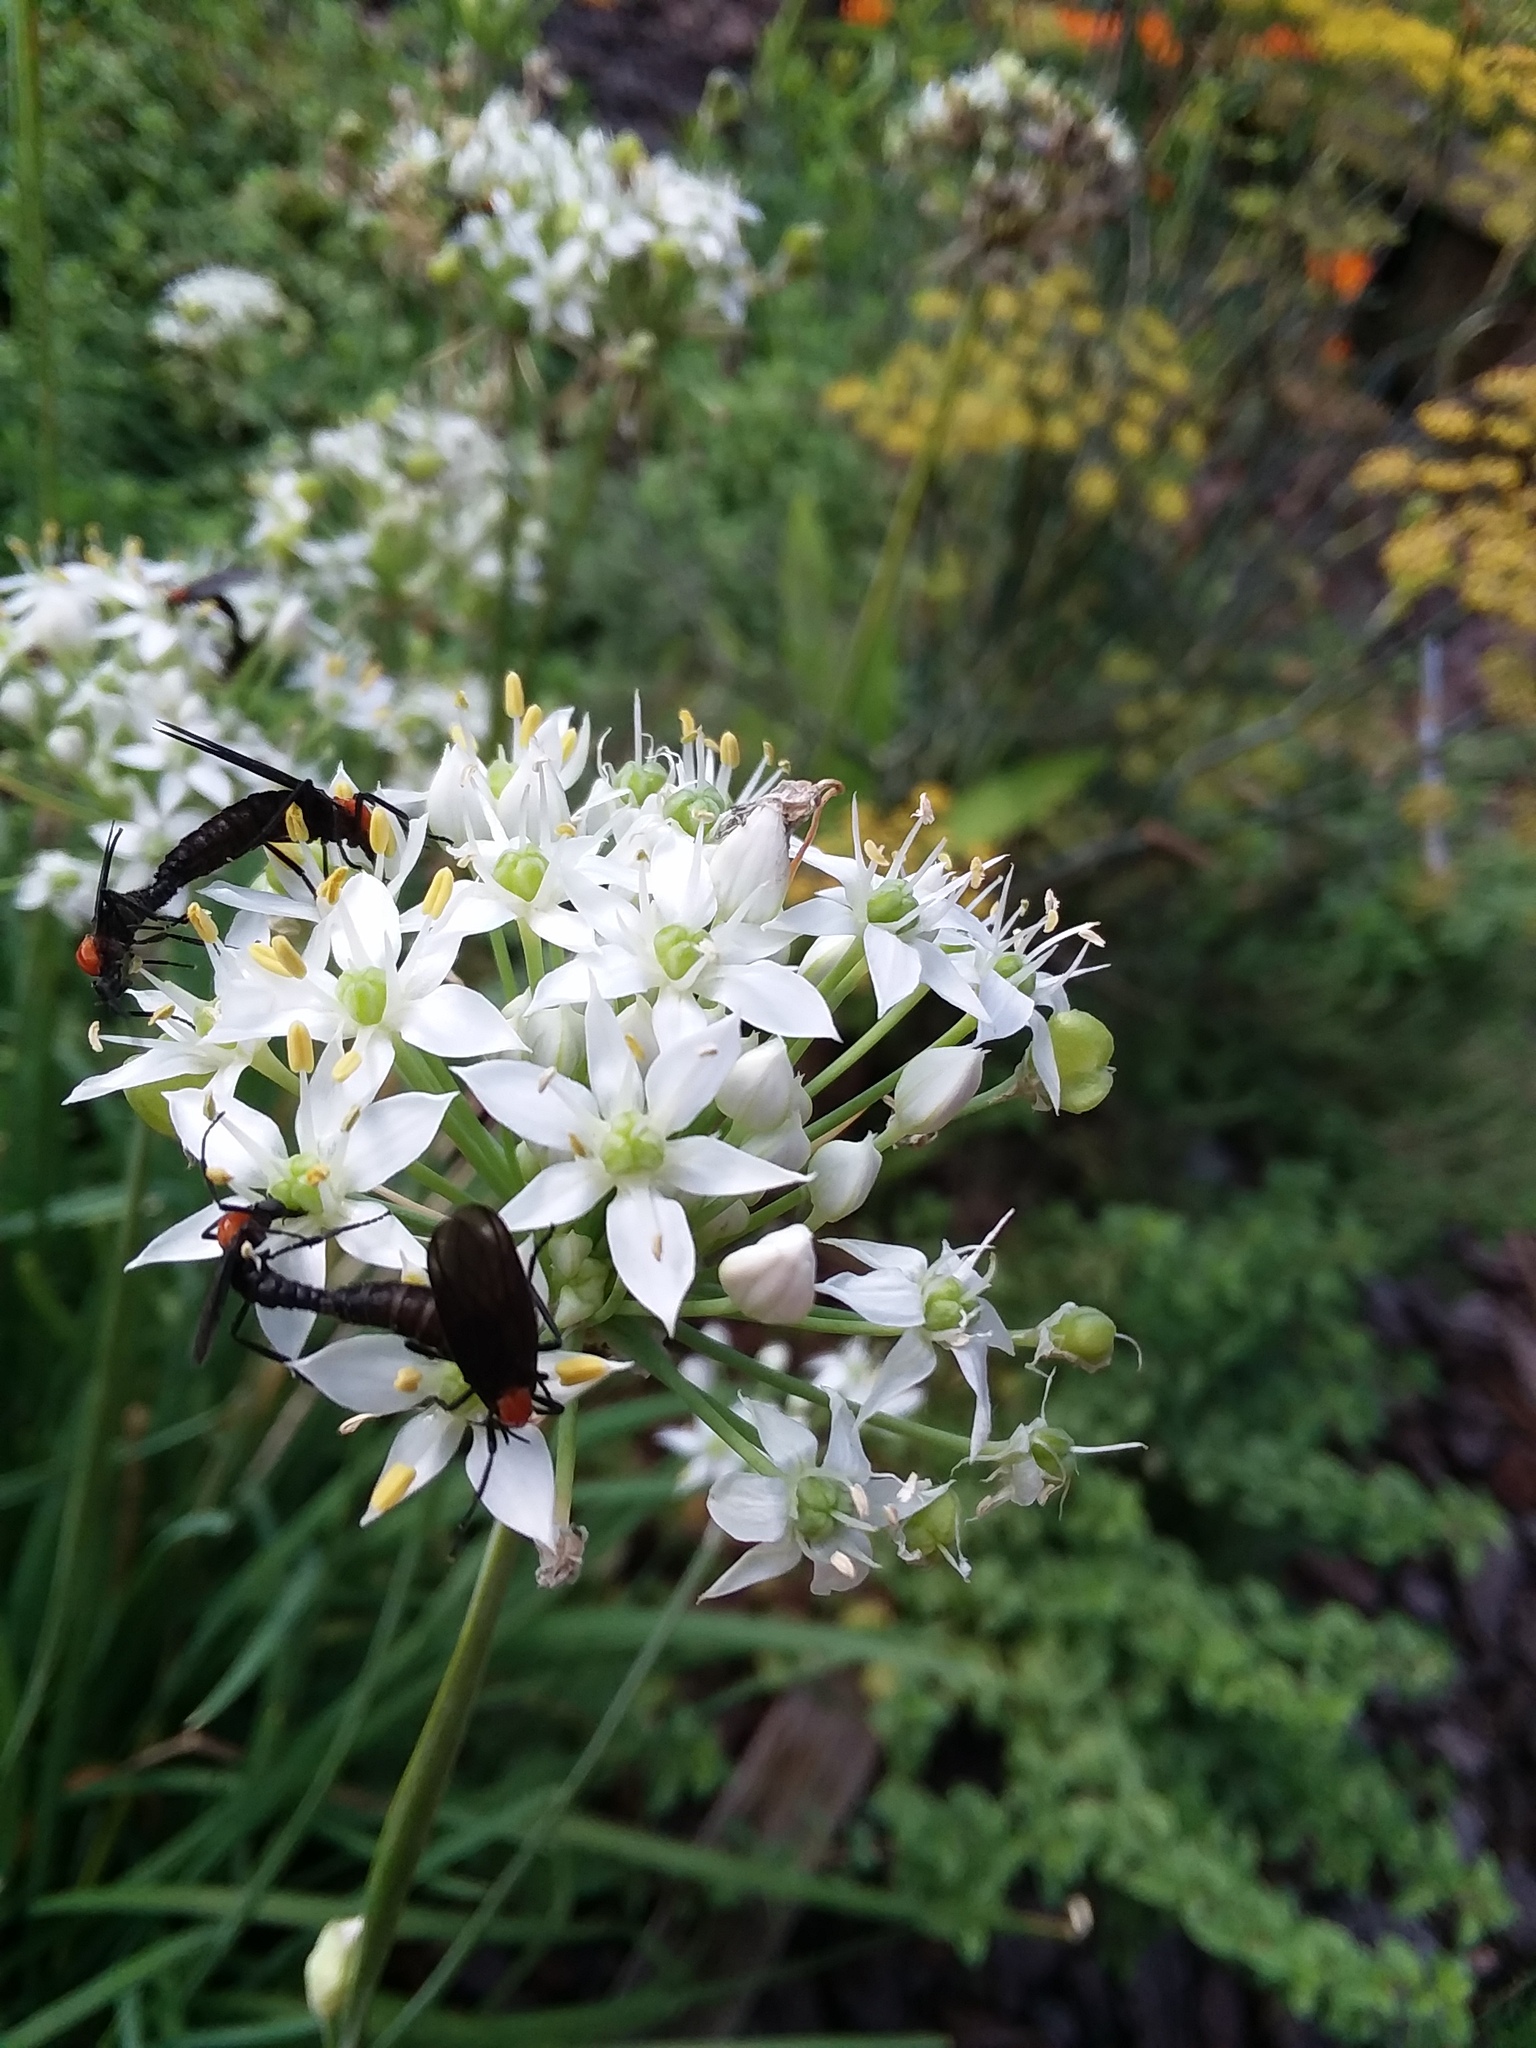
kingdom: Animalia
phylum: Arthropoda
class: Insecta
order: Diptera
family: Bibionidae
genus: Plecia
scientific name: Plecia nearctica
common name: March fly
